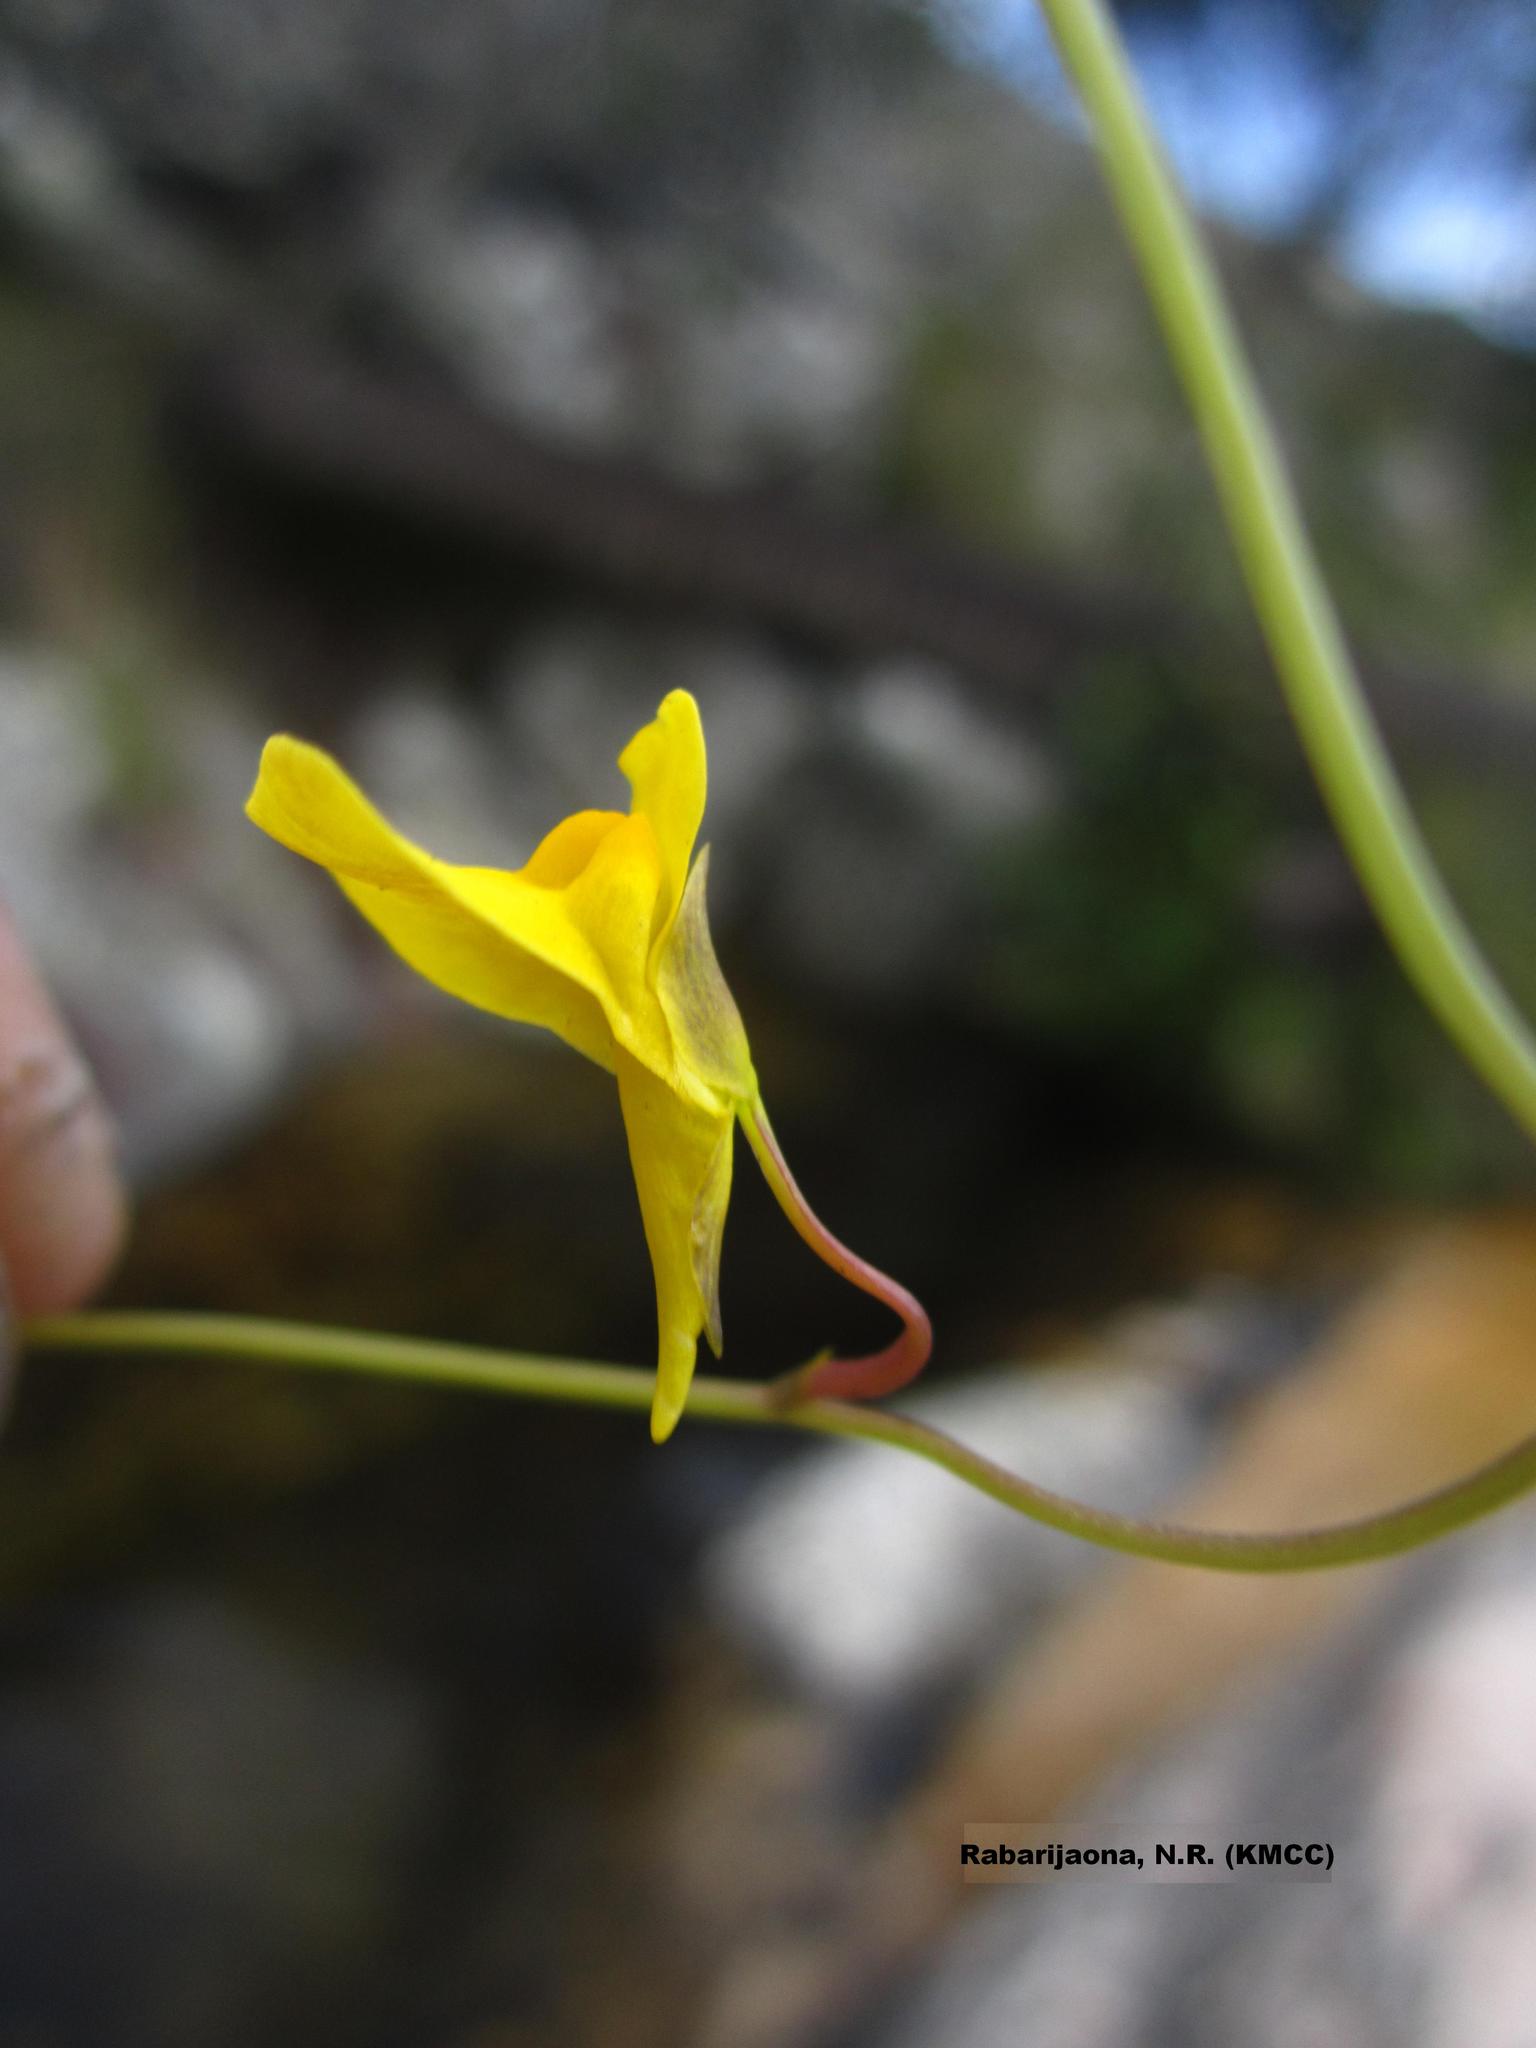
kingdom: Plantae
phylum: Tracheophyta
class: Magnoliopsida
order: Lamiales
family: Lentibulariaceae
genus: Utricularia
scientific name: Utricularia prehensilis
